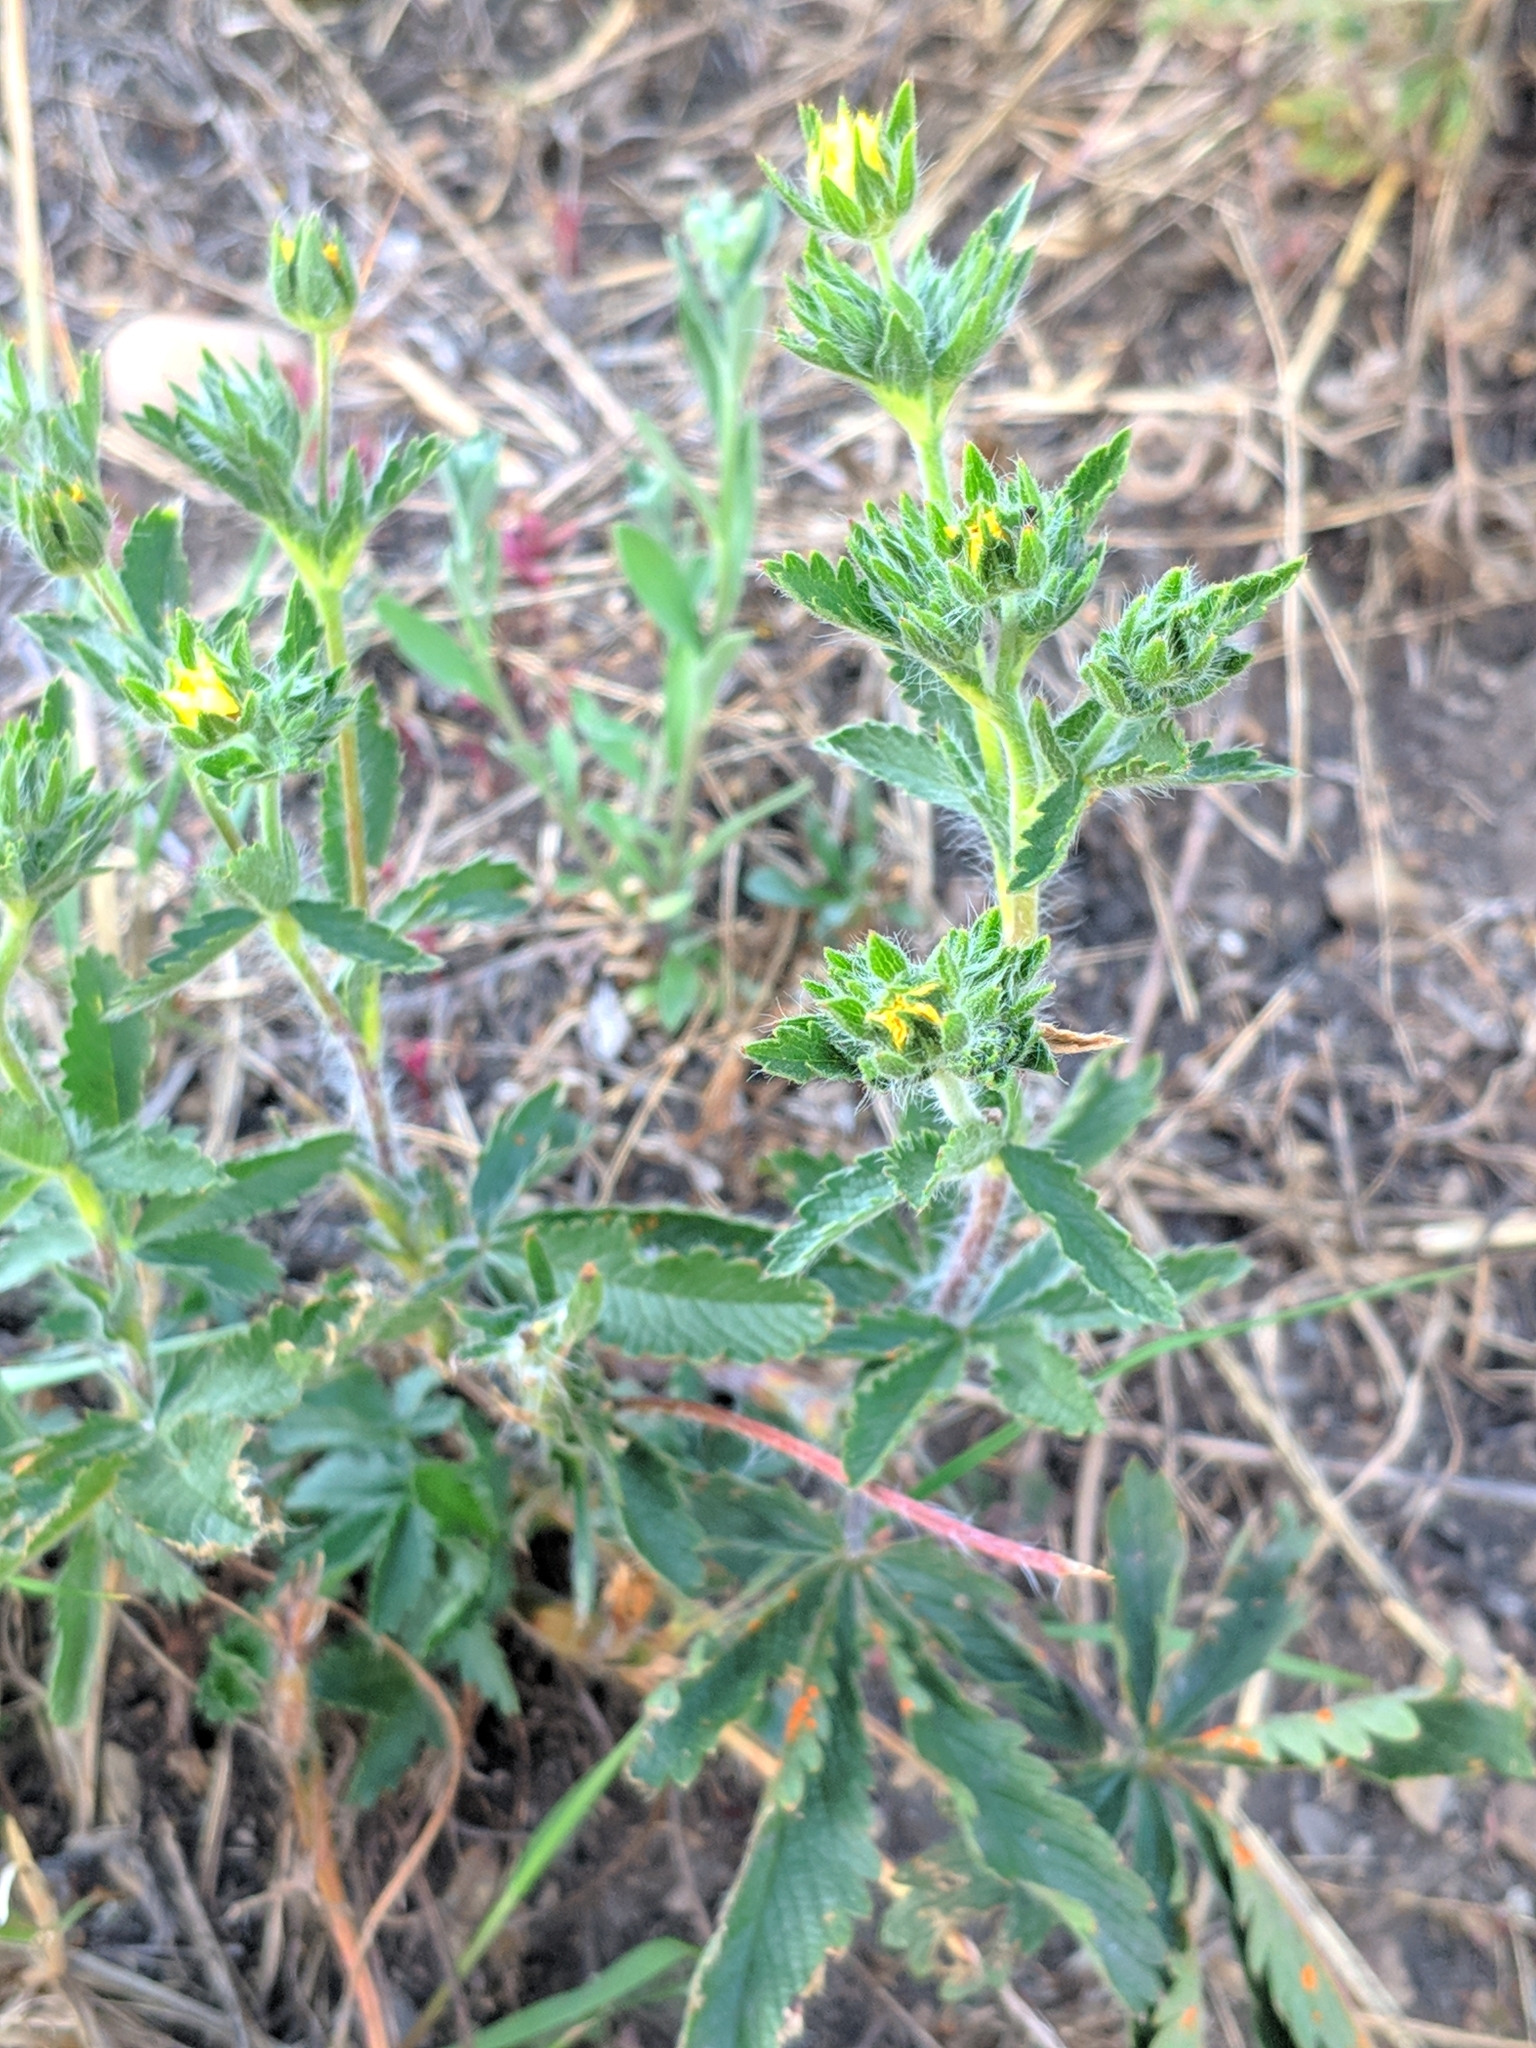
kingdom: Plantae
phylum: Tracheophyta
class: Magnoliopsida
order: Rosales
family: Rosaceae
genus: Potentilla
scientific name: Potentilla recta
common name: Sulphur cinquefoil
